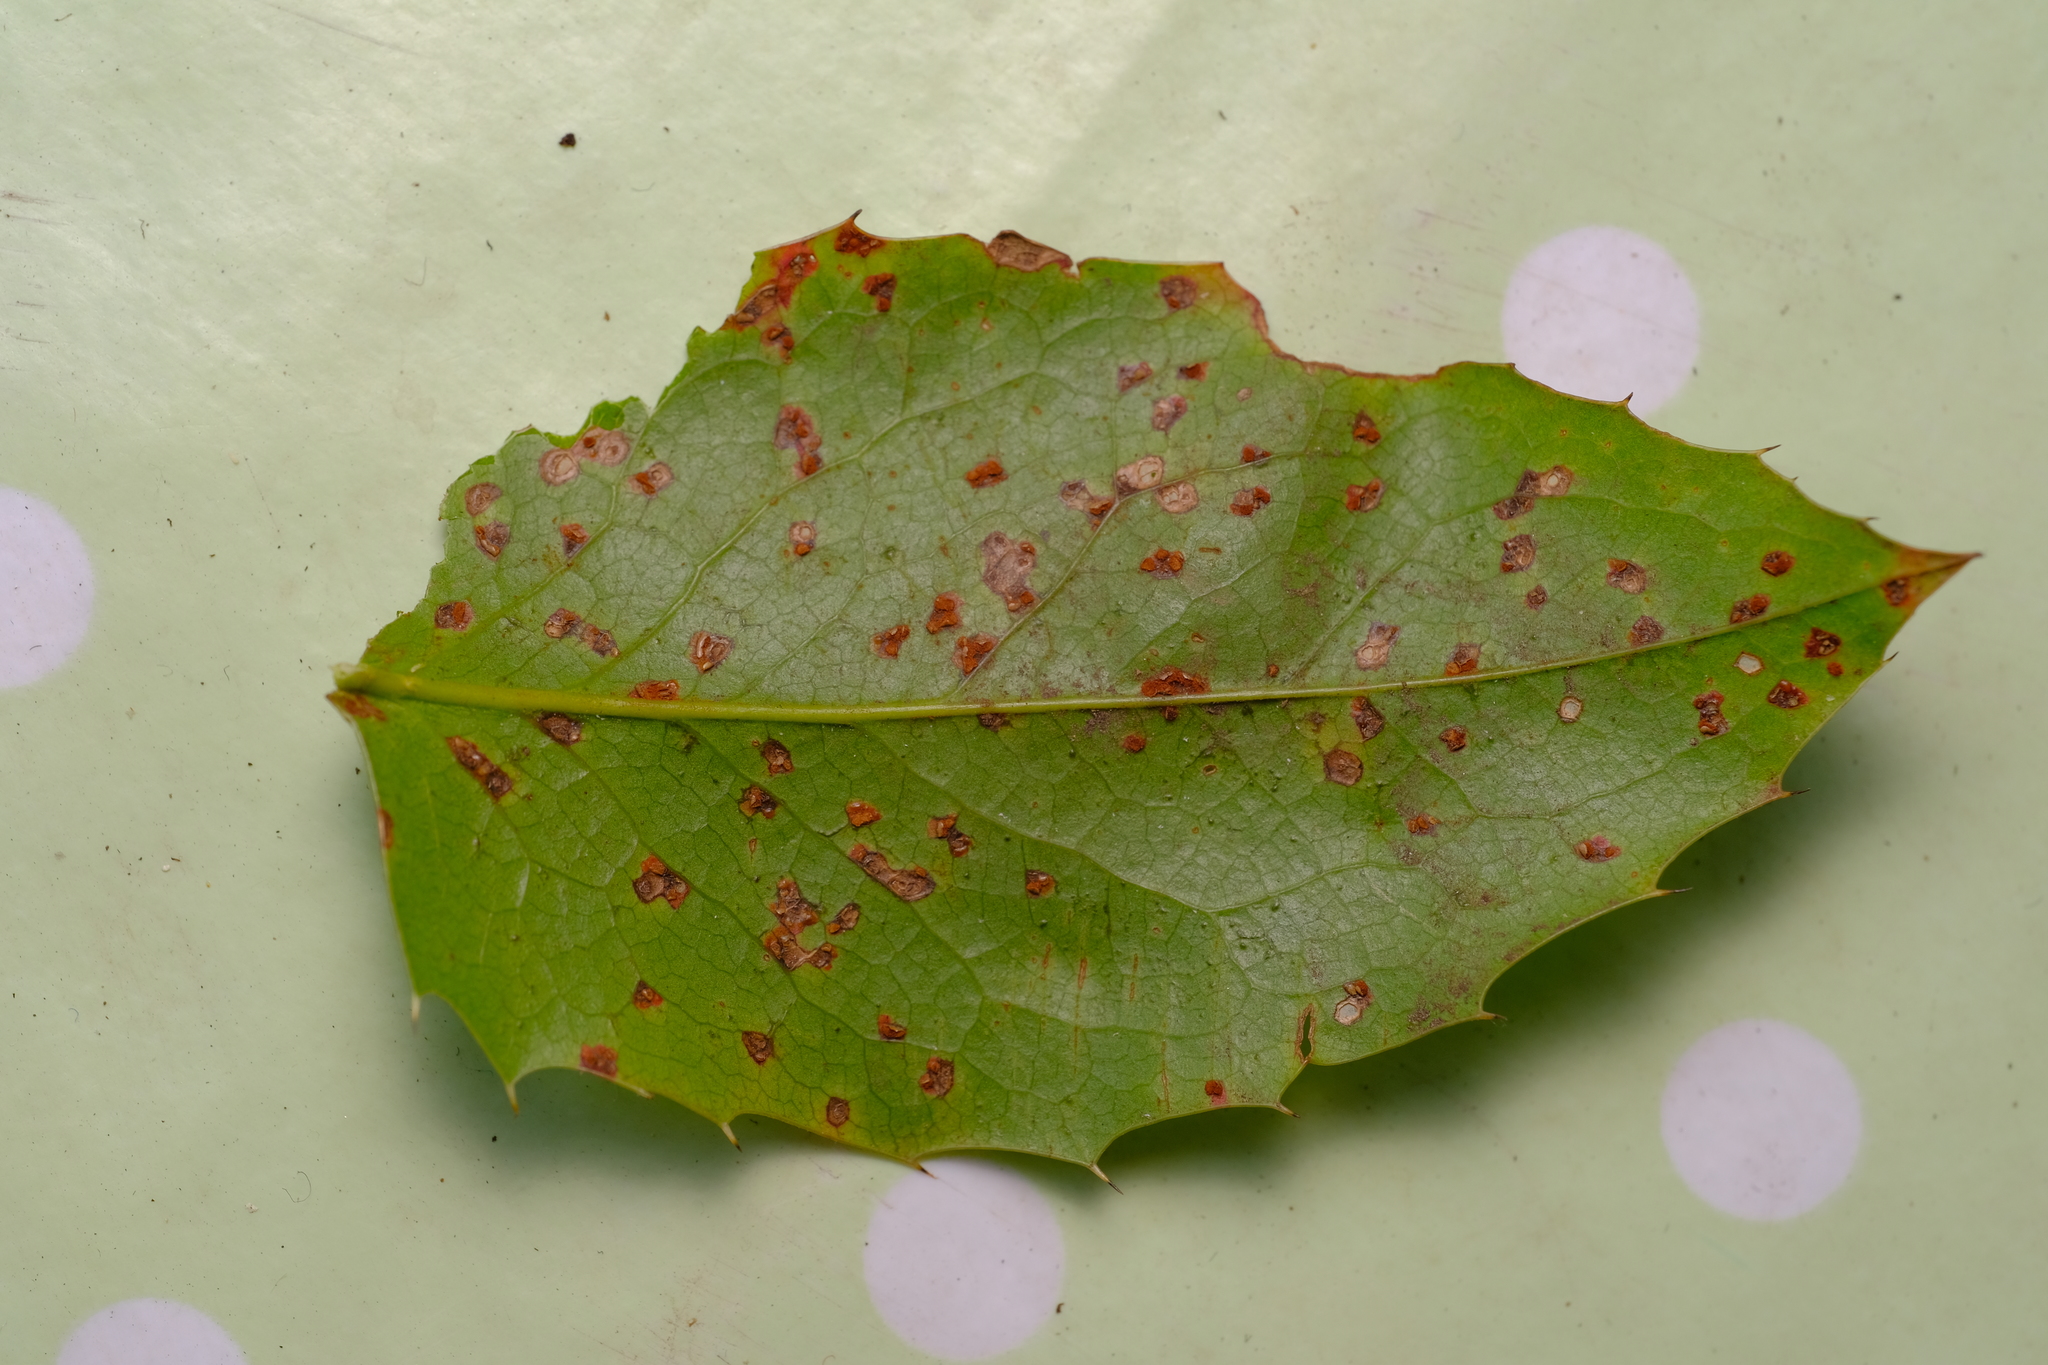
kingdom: Fungi
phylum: Basidiomycota
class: Pucciniomycetes
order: Pucciniales
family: Pucciniaceae
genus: Cumminsiella
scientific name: Cumminsiella mirabilissima
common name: Mahonia rust
